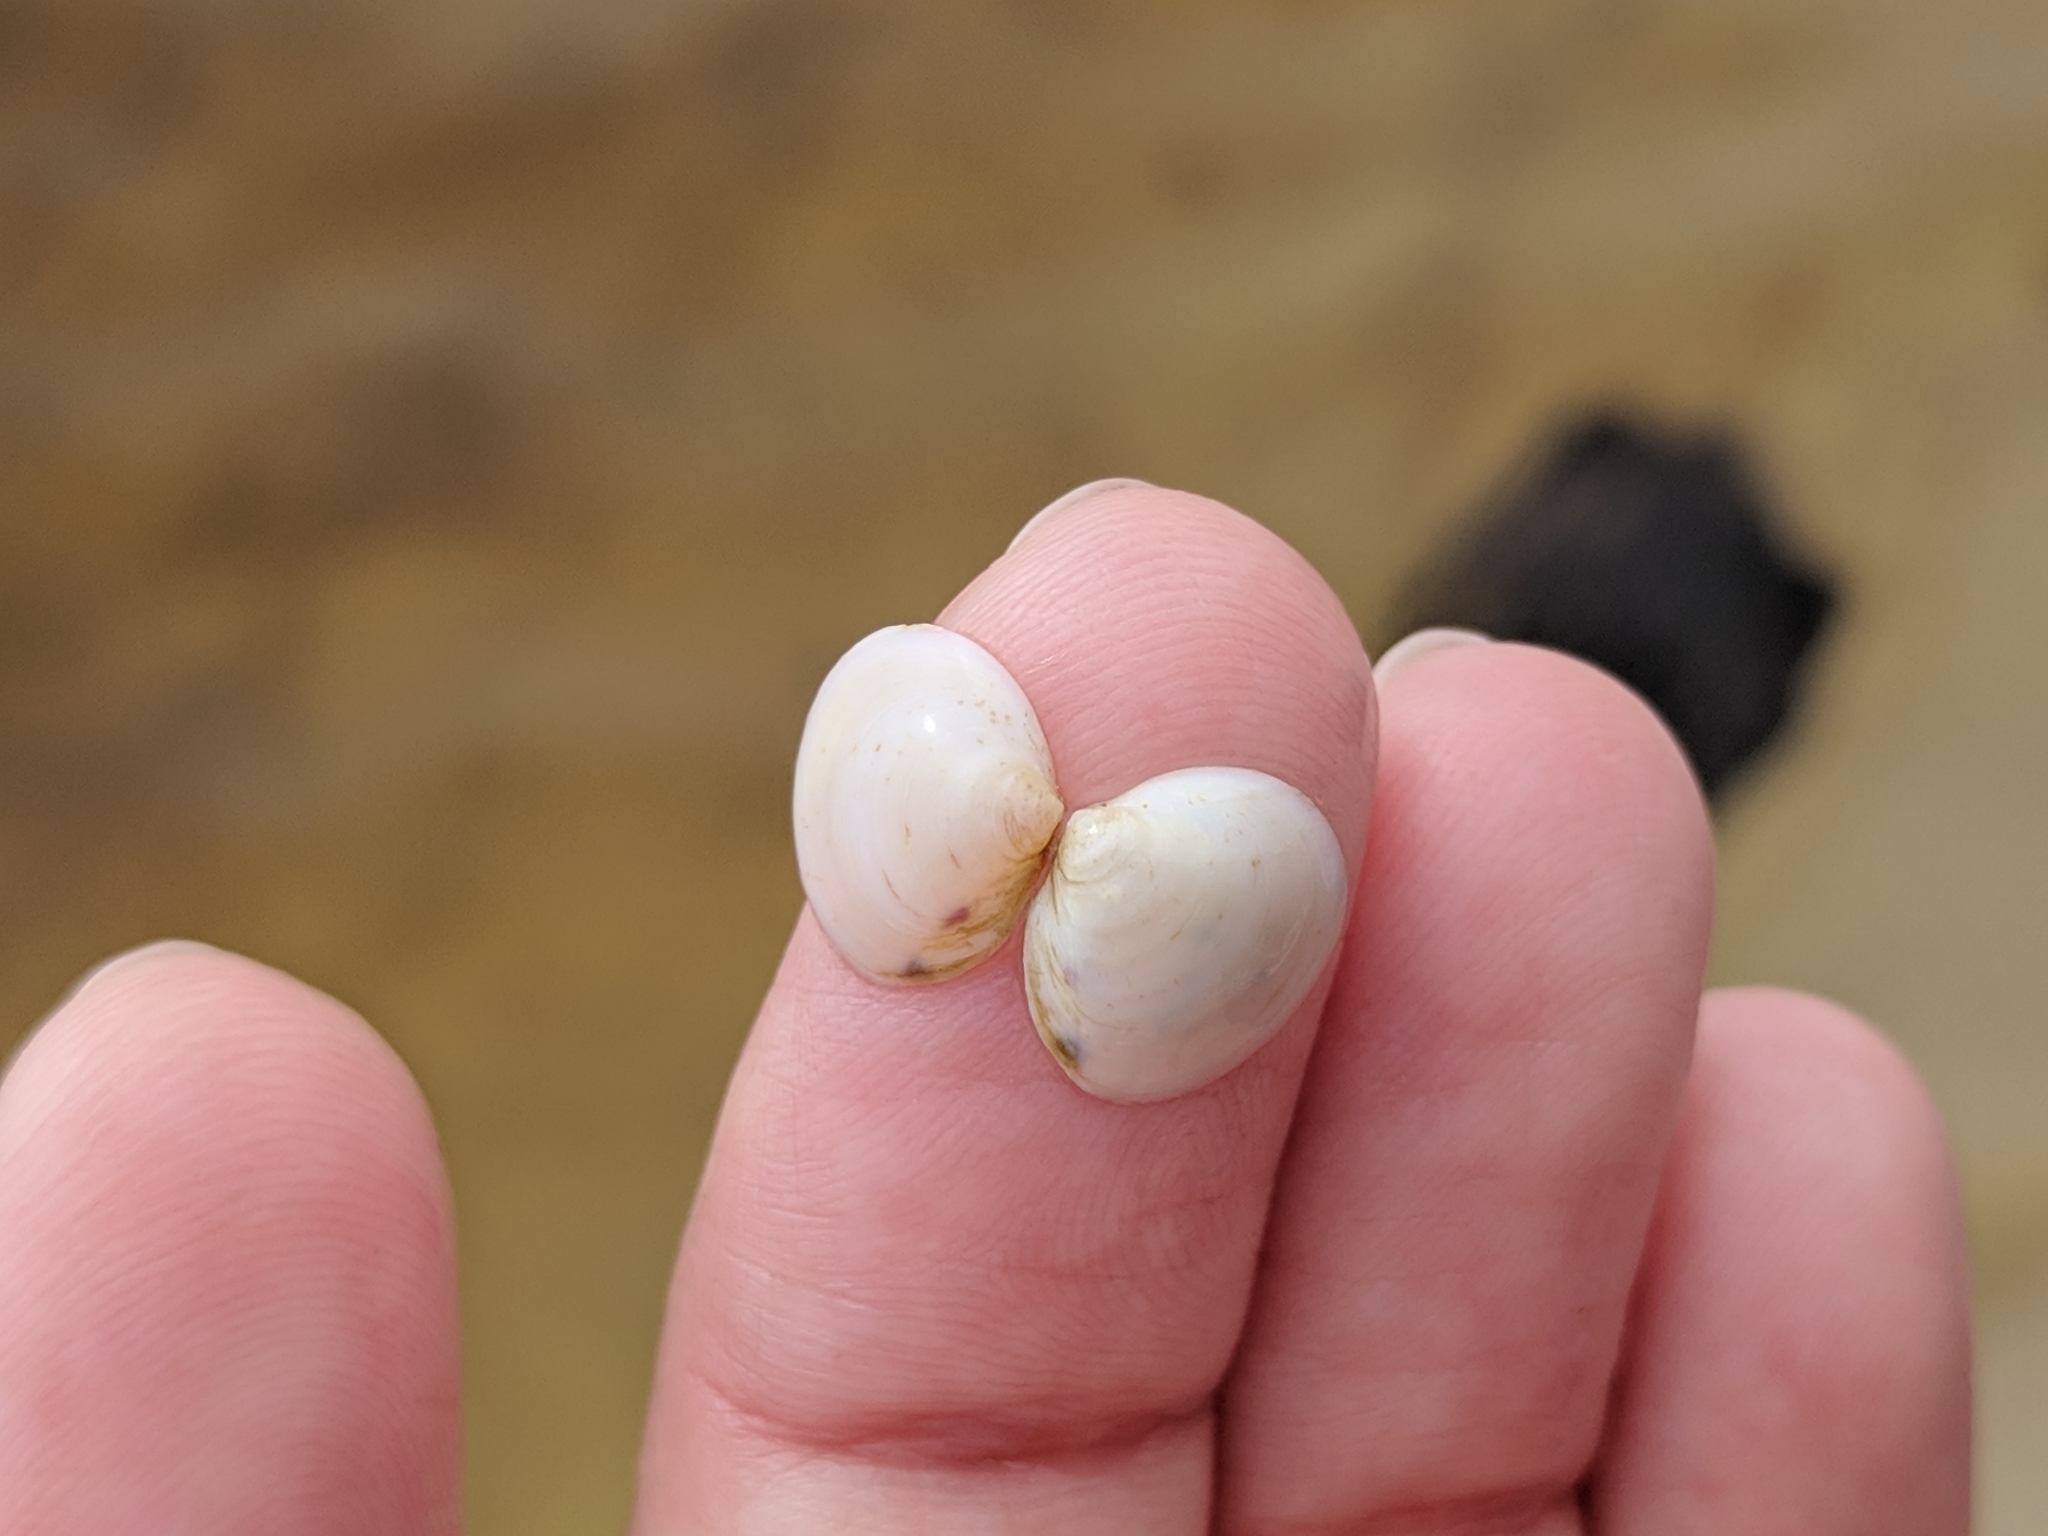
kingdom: Animalia
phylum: Mollusca
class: Bivalvia
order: Cardiida
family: Cardiidae
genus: Laevicardium
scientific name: Laevicardium mortoni
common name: Morton eggcockle
